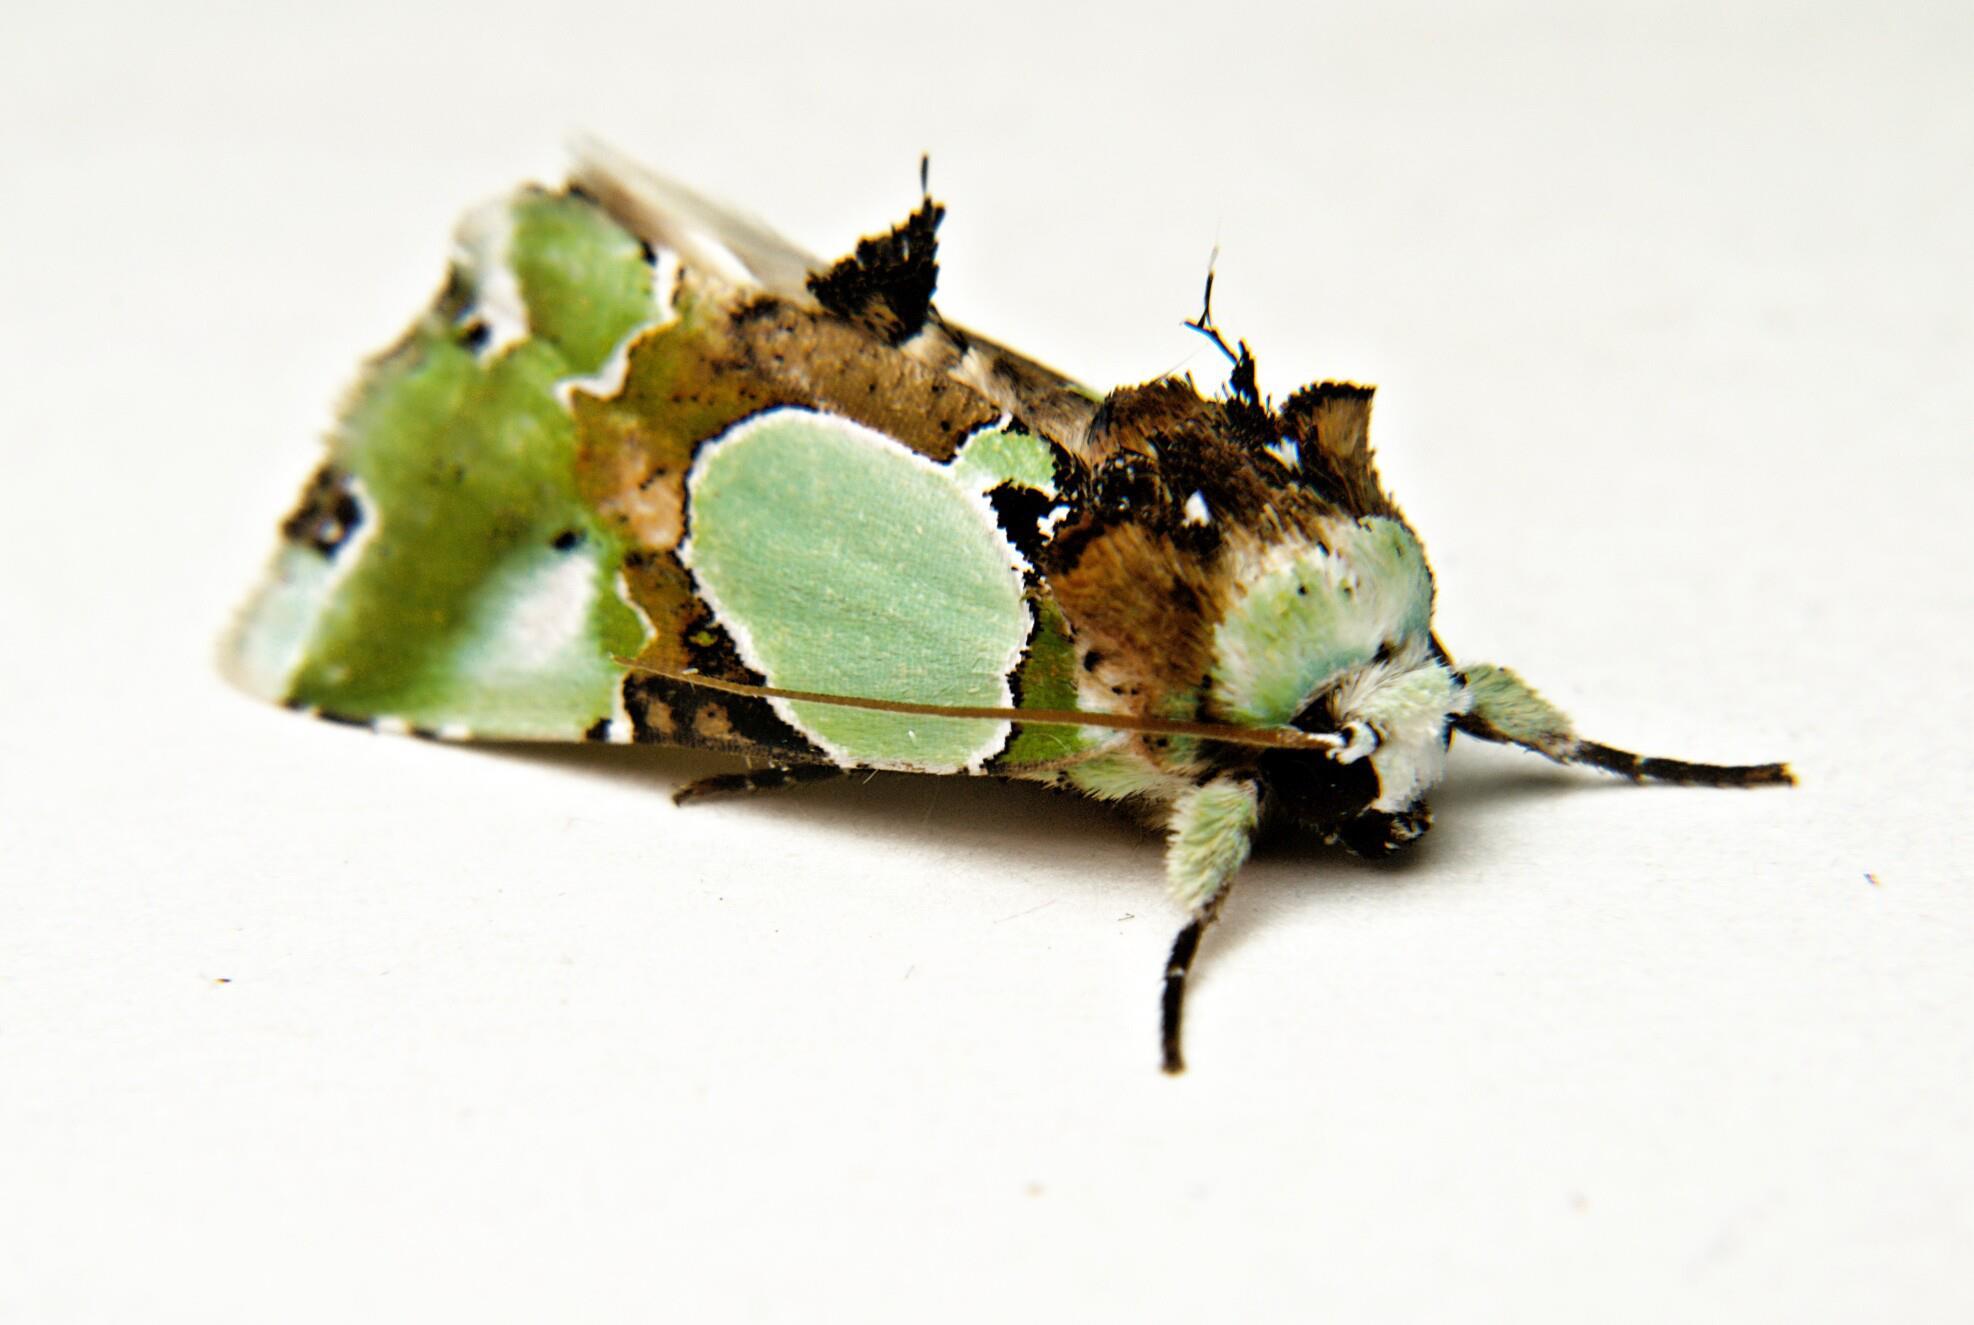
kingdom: Animalia
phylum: Arthropoda
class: Insecta
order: Lepidoptera
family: Noctuidae
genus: Nacna
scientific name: Nacna malachitis
